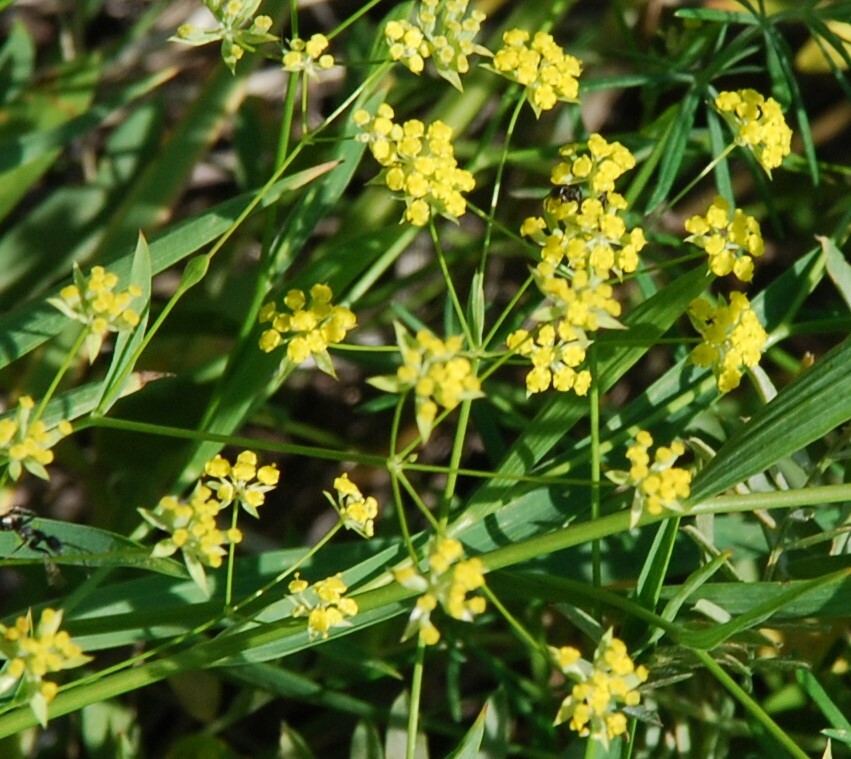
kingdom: Plantae
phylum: Tracheophyta
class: Magnoliopsida
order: Apiales
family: Apiaceae
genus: Bupleurum
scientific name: Bupleurum sibiricum
